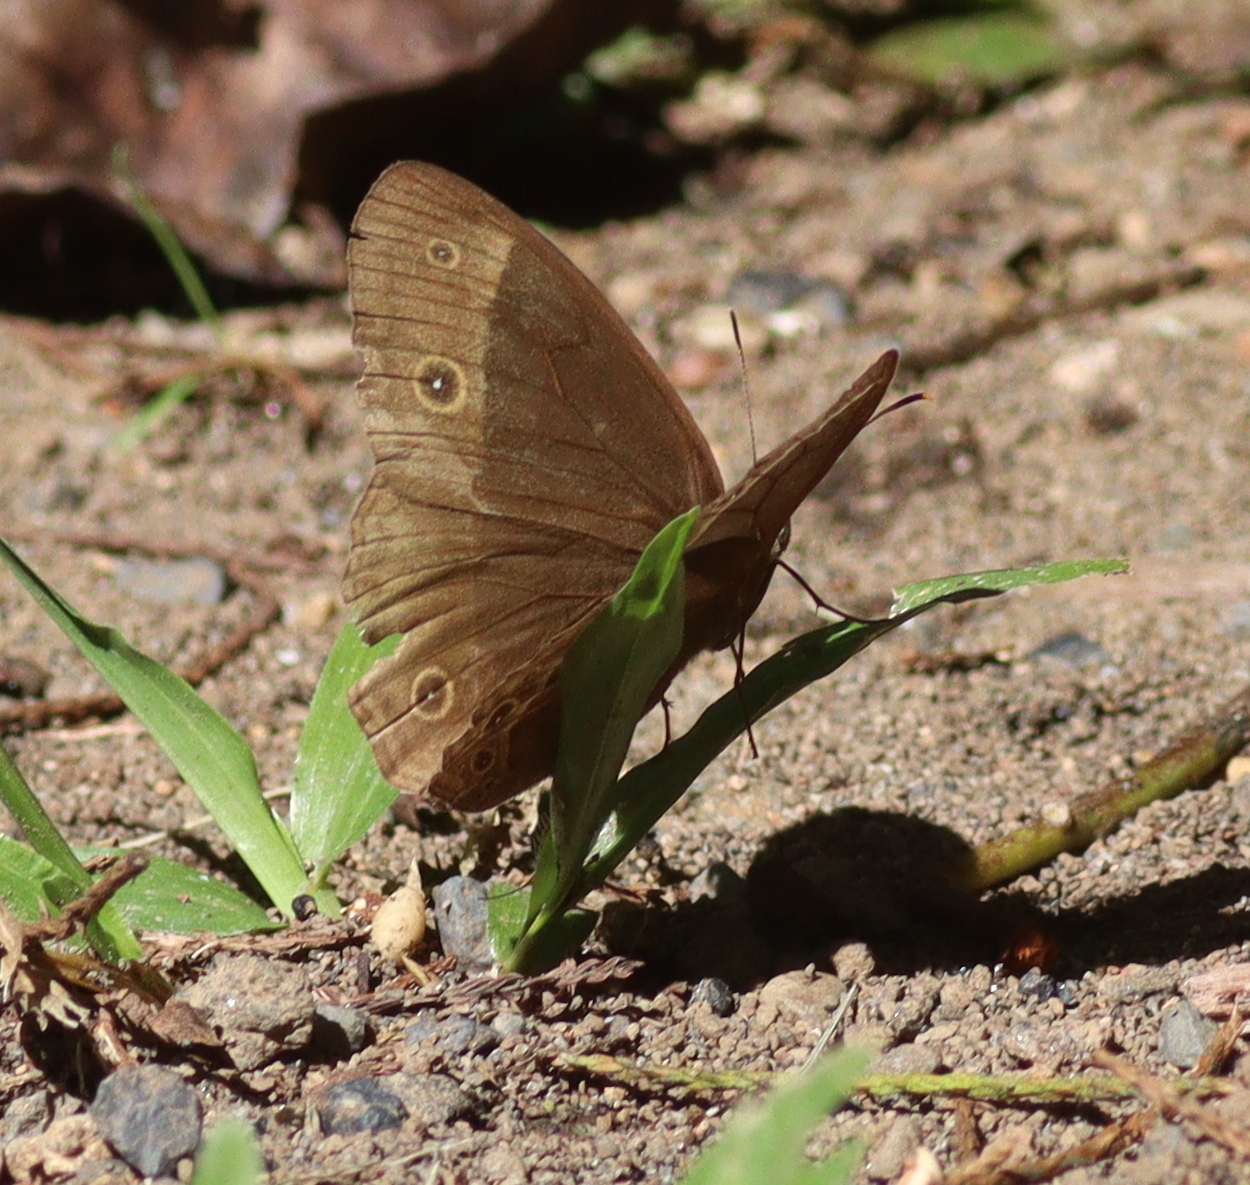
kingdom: Animalia
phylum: Arthropoda
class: Insecta
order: Lepidoptera
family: Nymphalidae
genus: Mycalesis
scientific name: Mycalesis sudra
